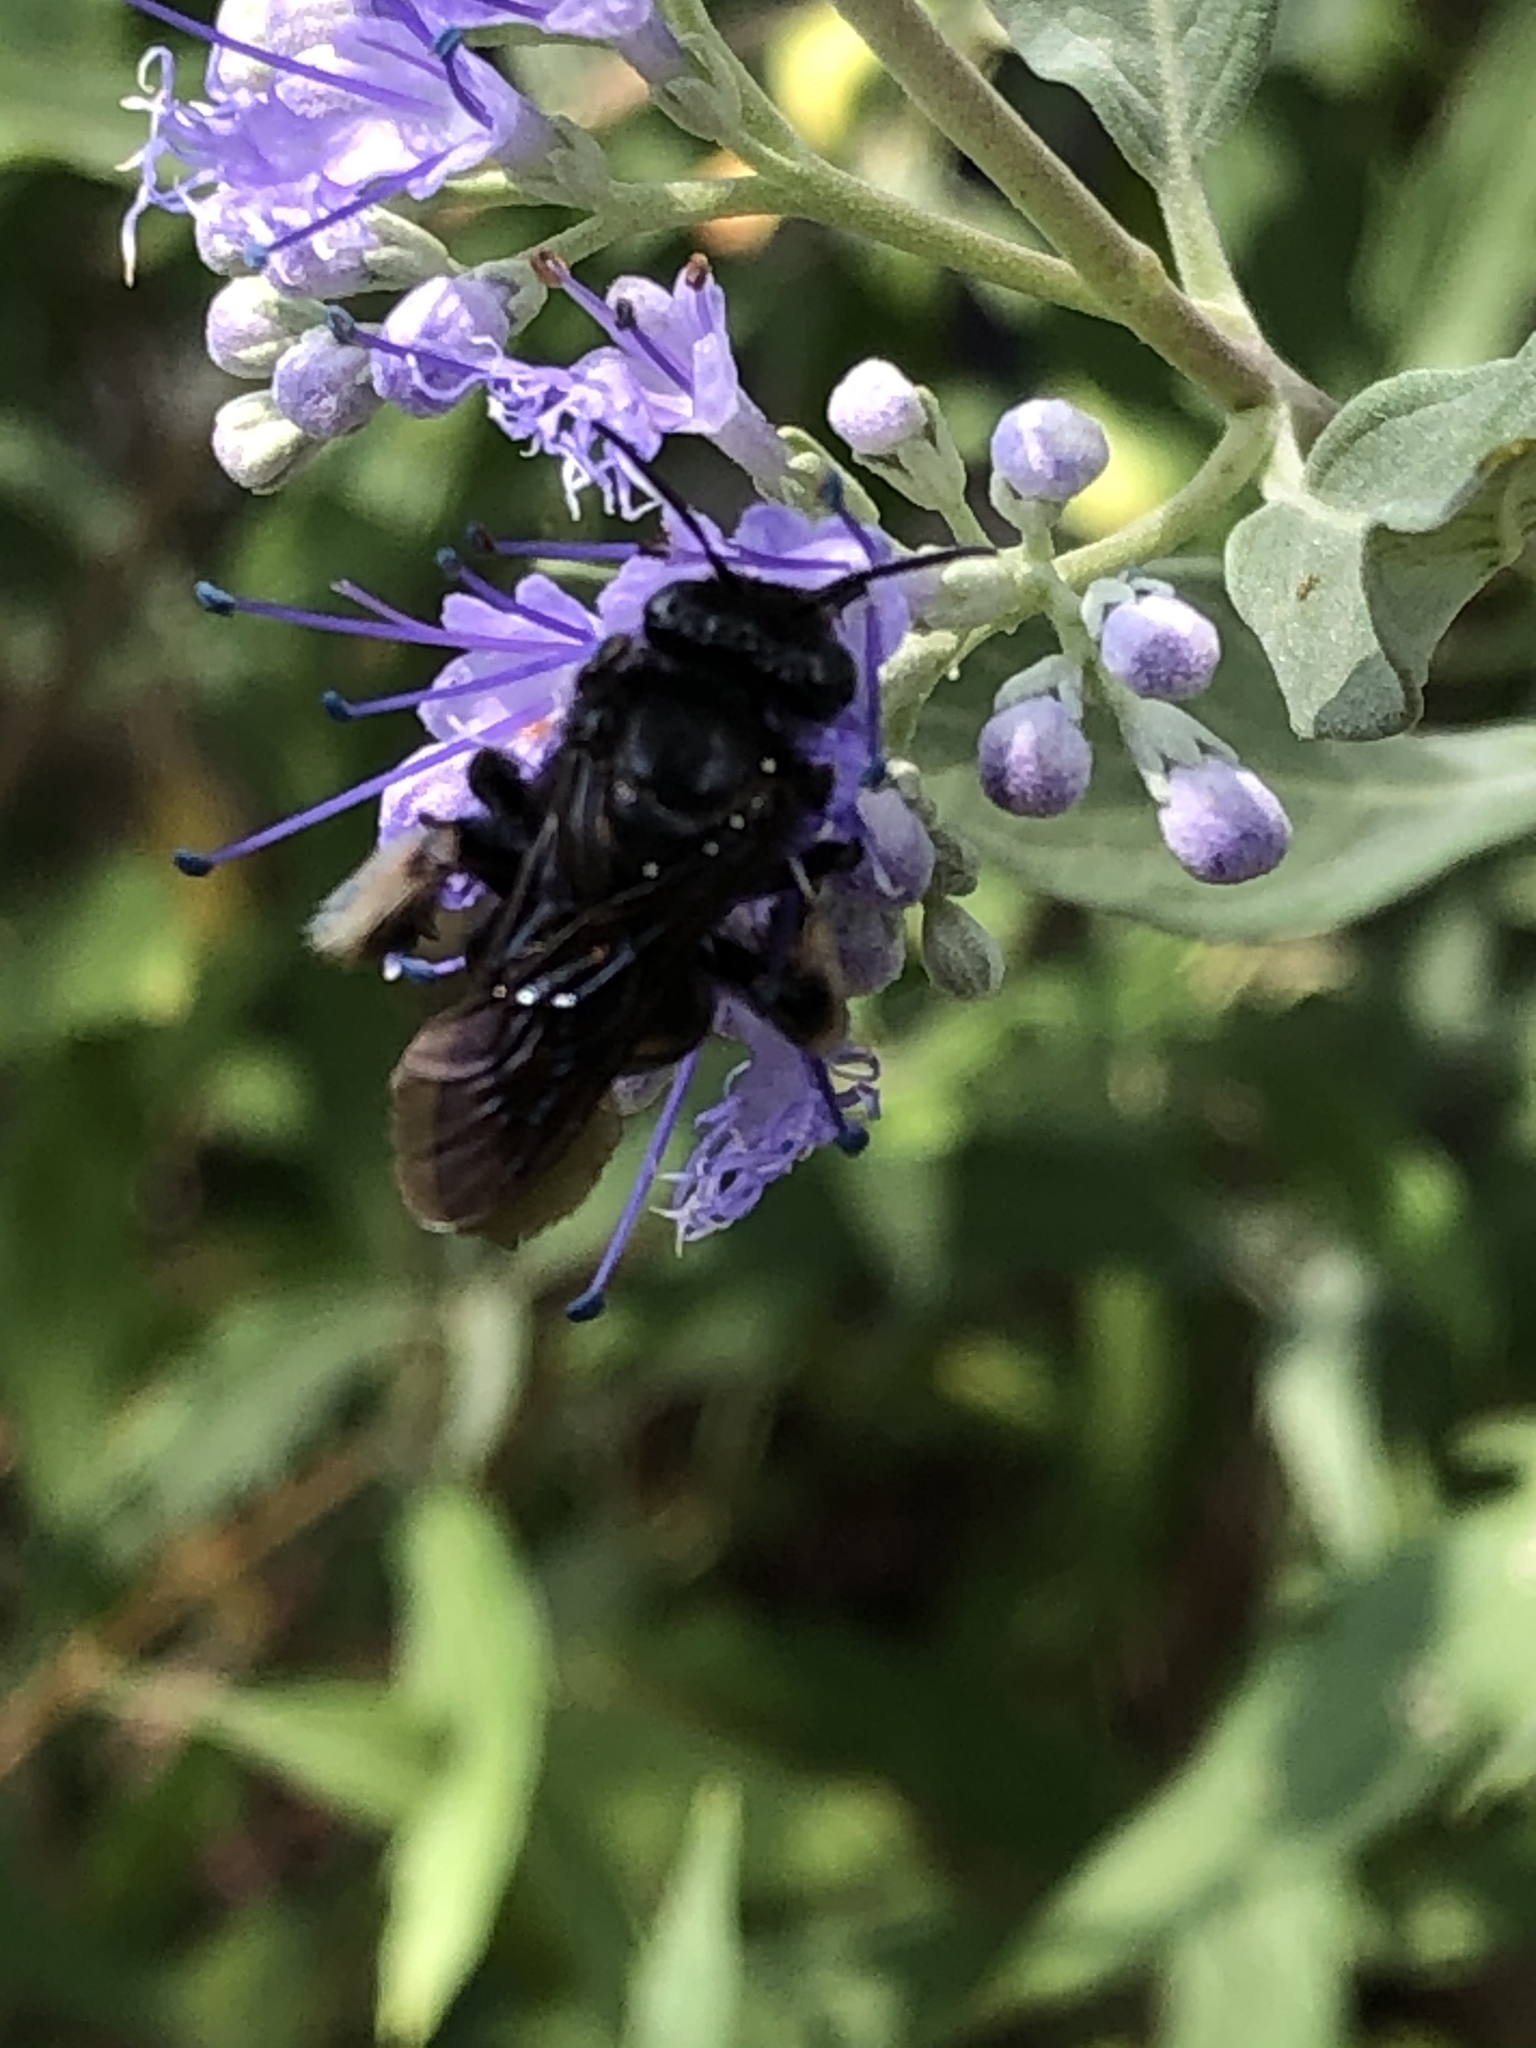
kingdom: Animalia
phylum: Arthropoda
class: Insecta
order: Hymenoptera
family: Apidae
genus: Melissodes
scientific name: Melissodes bimaculatus
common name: Two-spotted long-horned bee
